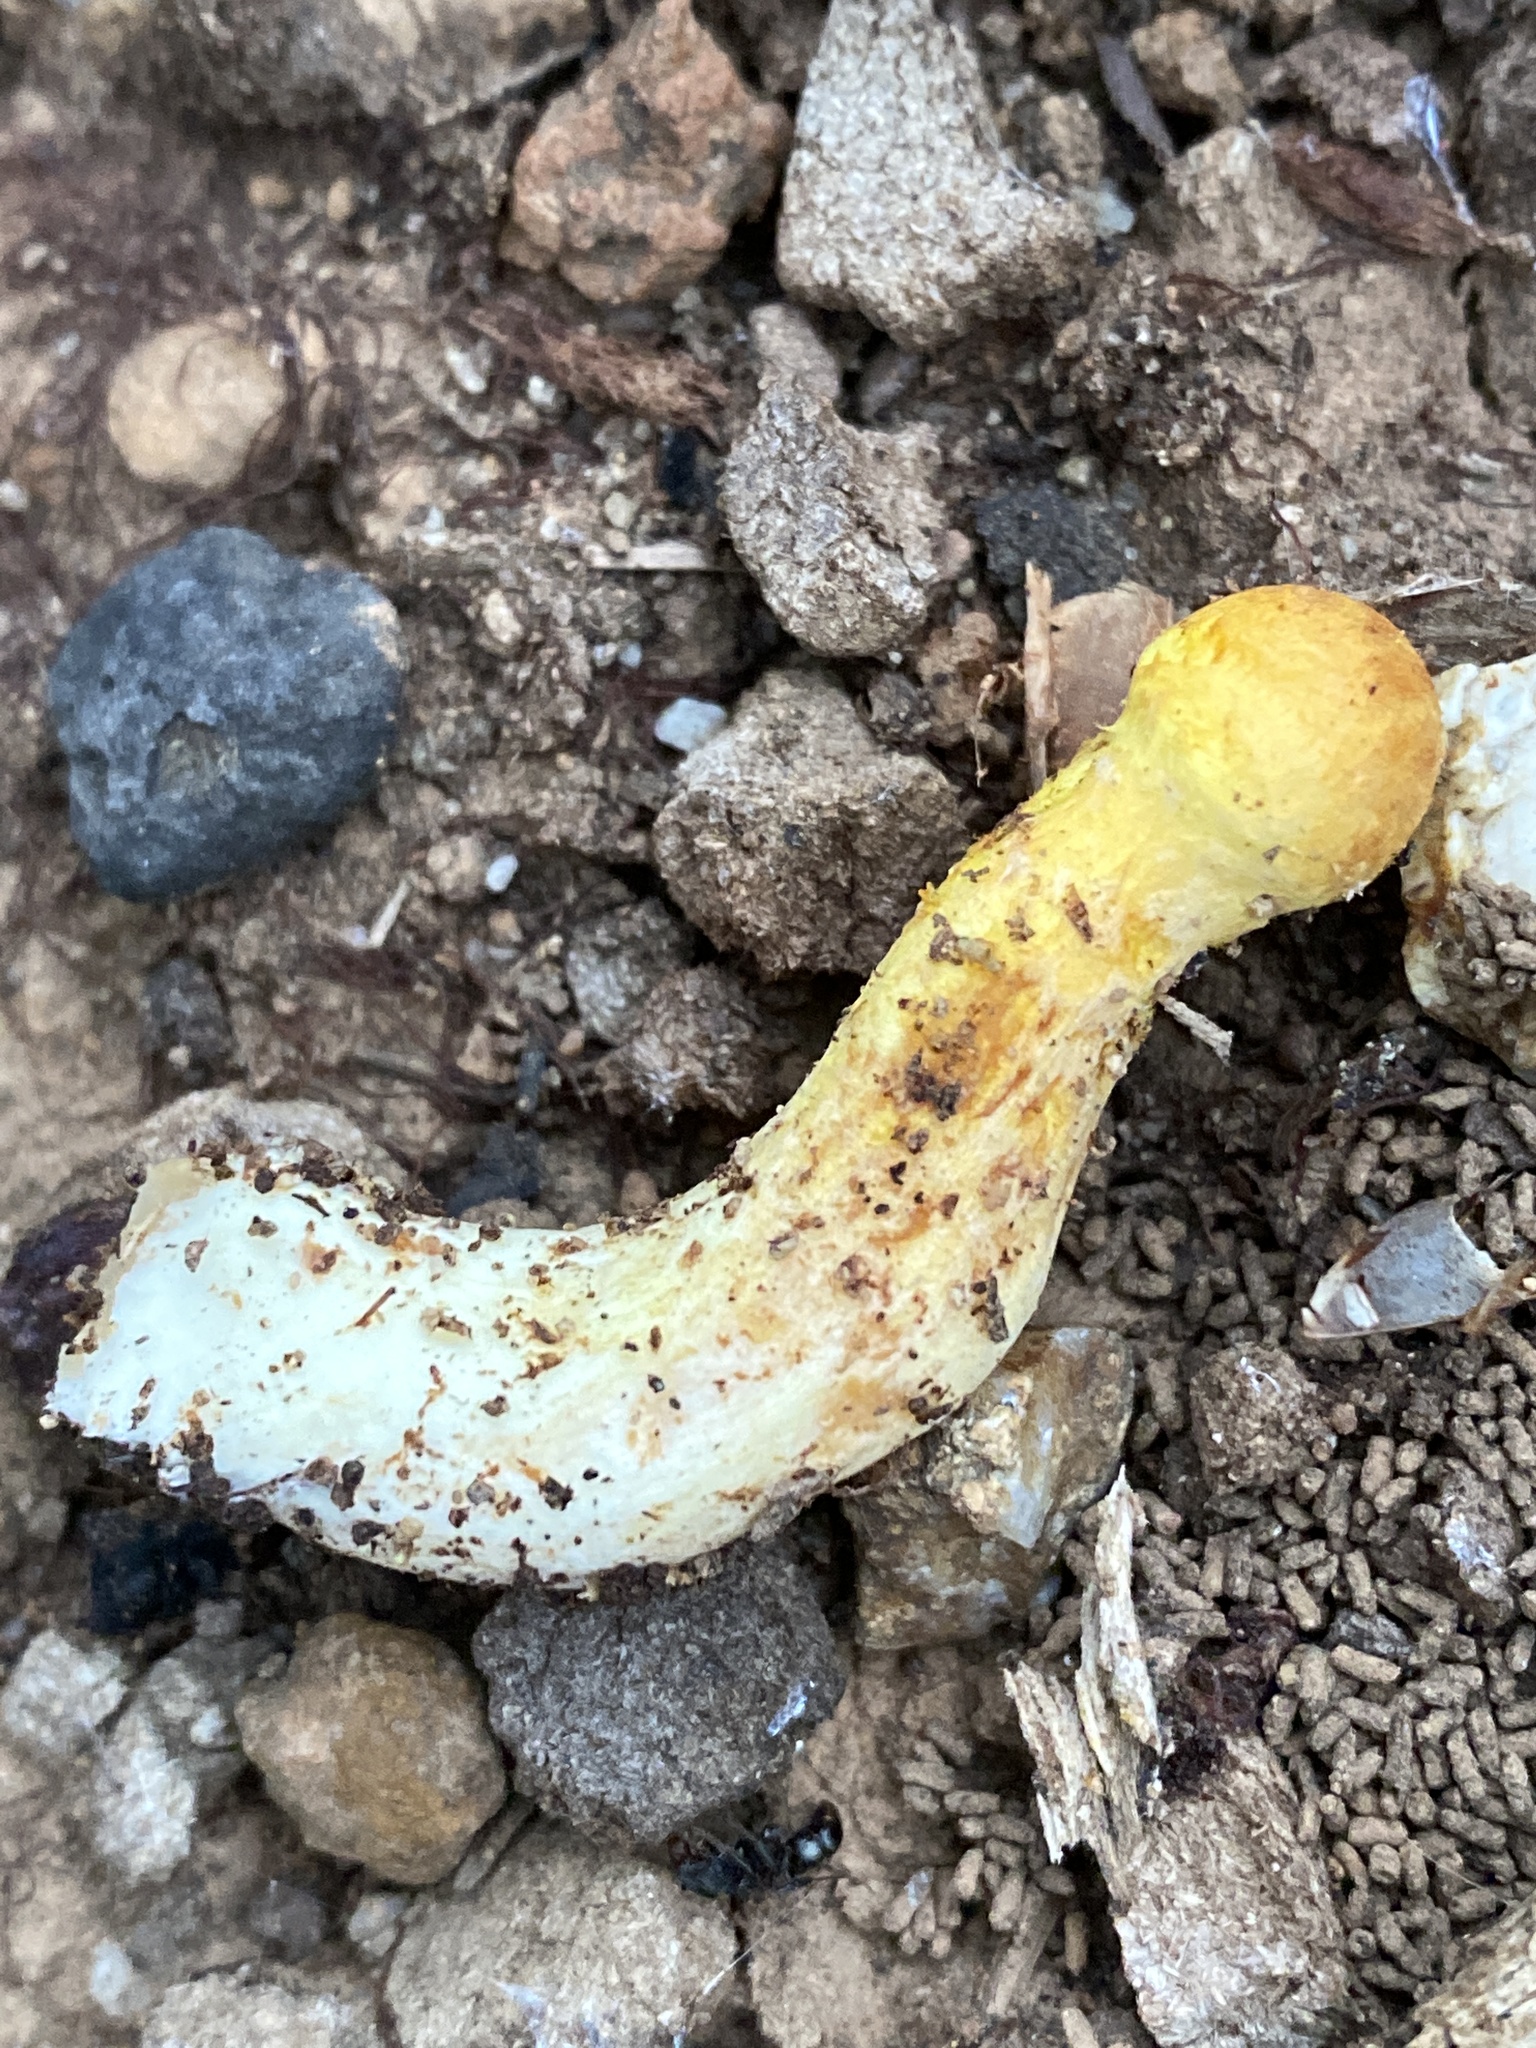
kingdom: Fungi
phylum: Basidiomycota
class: Agaricomycetes
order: Agaricales
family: Hymenogastraceae
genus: Gymnopilus
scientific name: Gymnopilus junonius
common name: Spectacular rustgill
